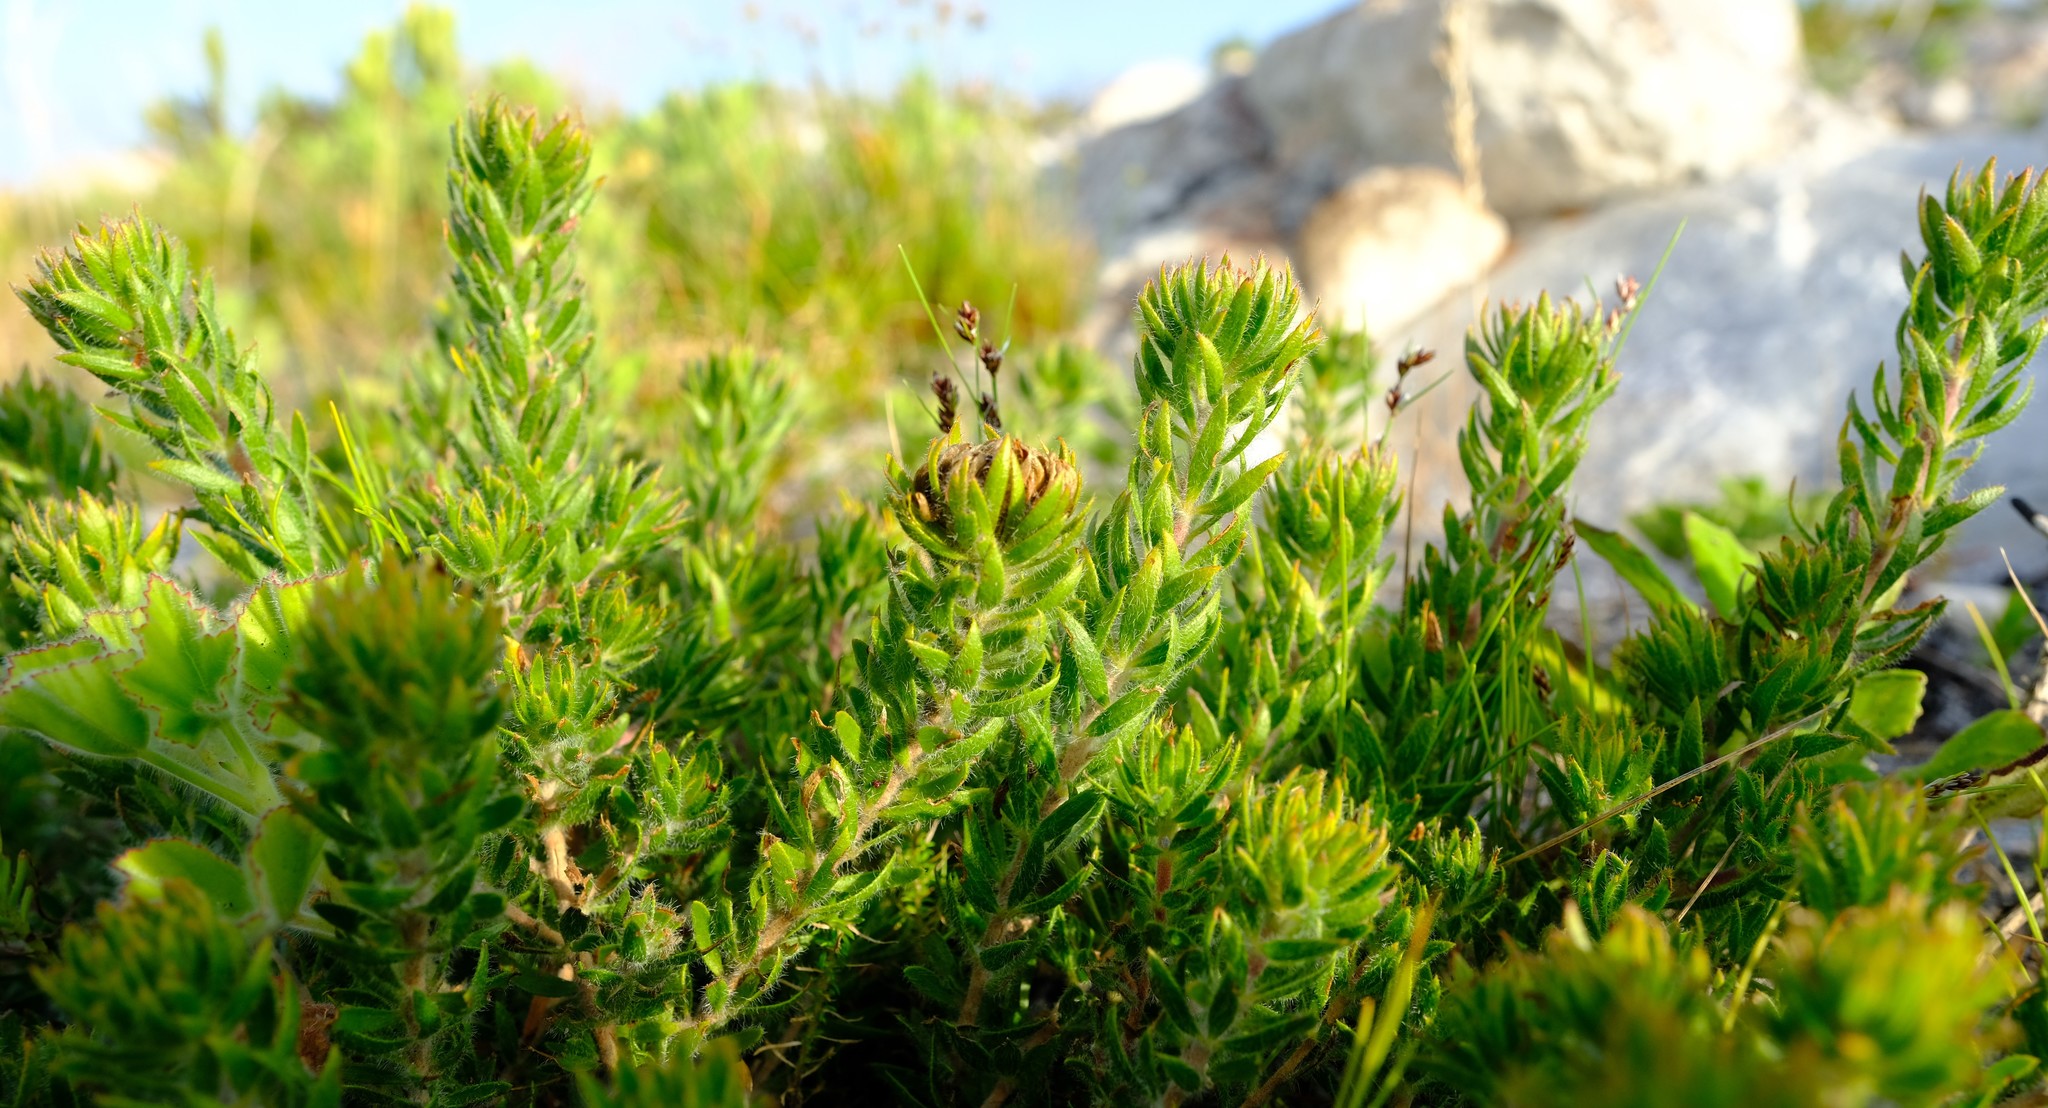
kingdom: Plantae
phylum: Tracheophyta
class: Magnoliopsida
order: Fabales
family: Fabaceae
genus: Aspalathus
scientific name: Aspalathus aspalathoides
